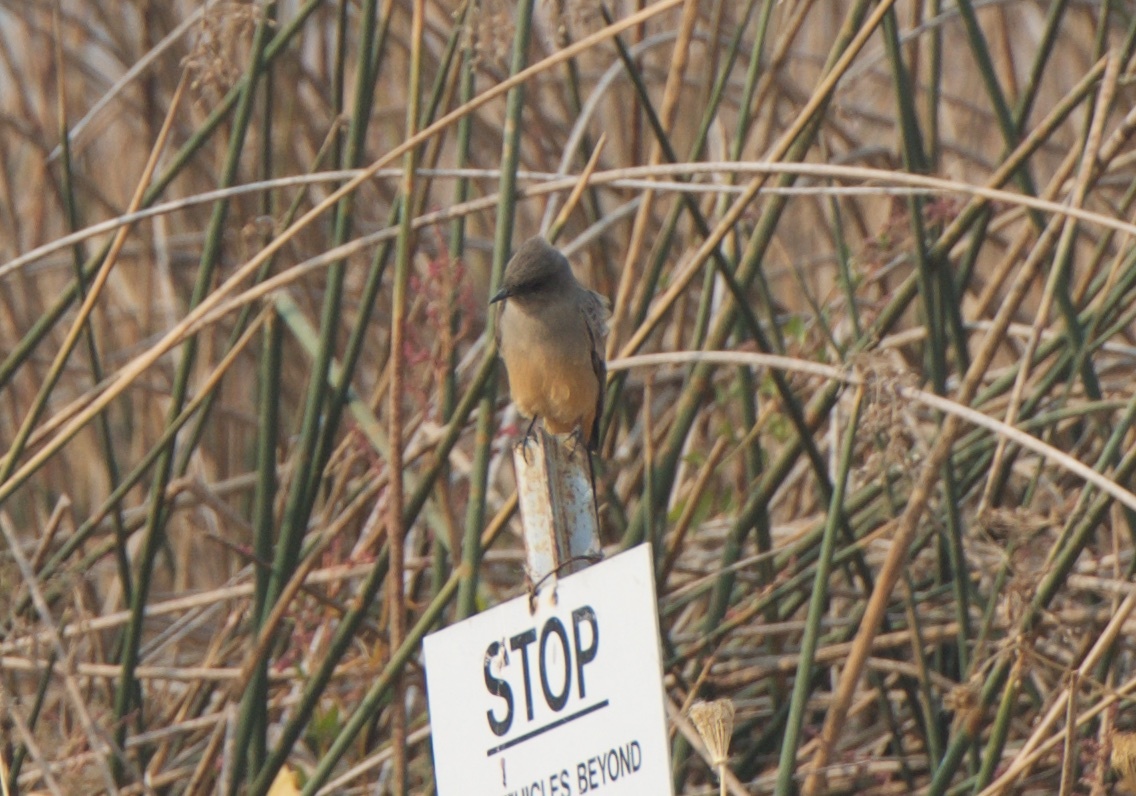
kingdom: Animalia
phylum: Chordata
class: Aves
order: Passeriformes
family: Tyrannidae
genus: Sayornis
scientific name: Sayornis saya
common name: Say's phoebe
